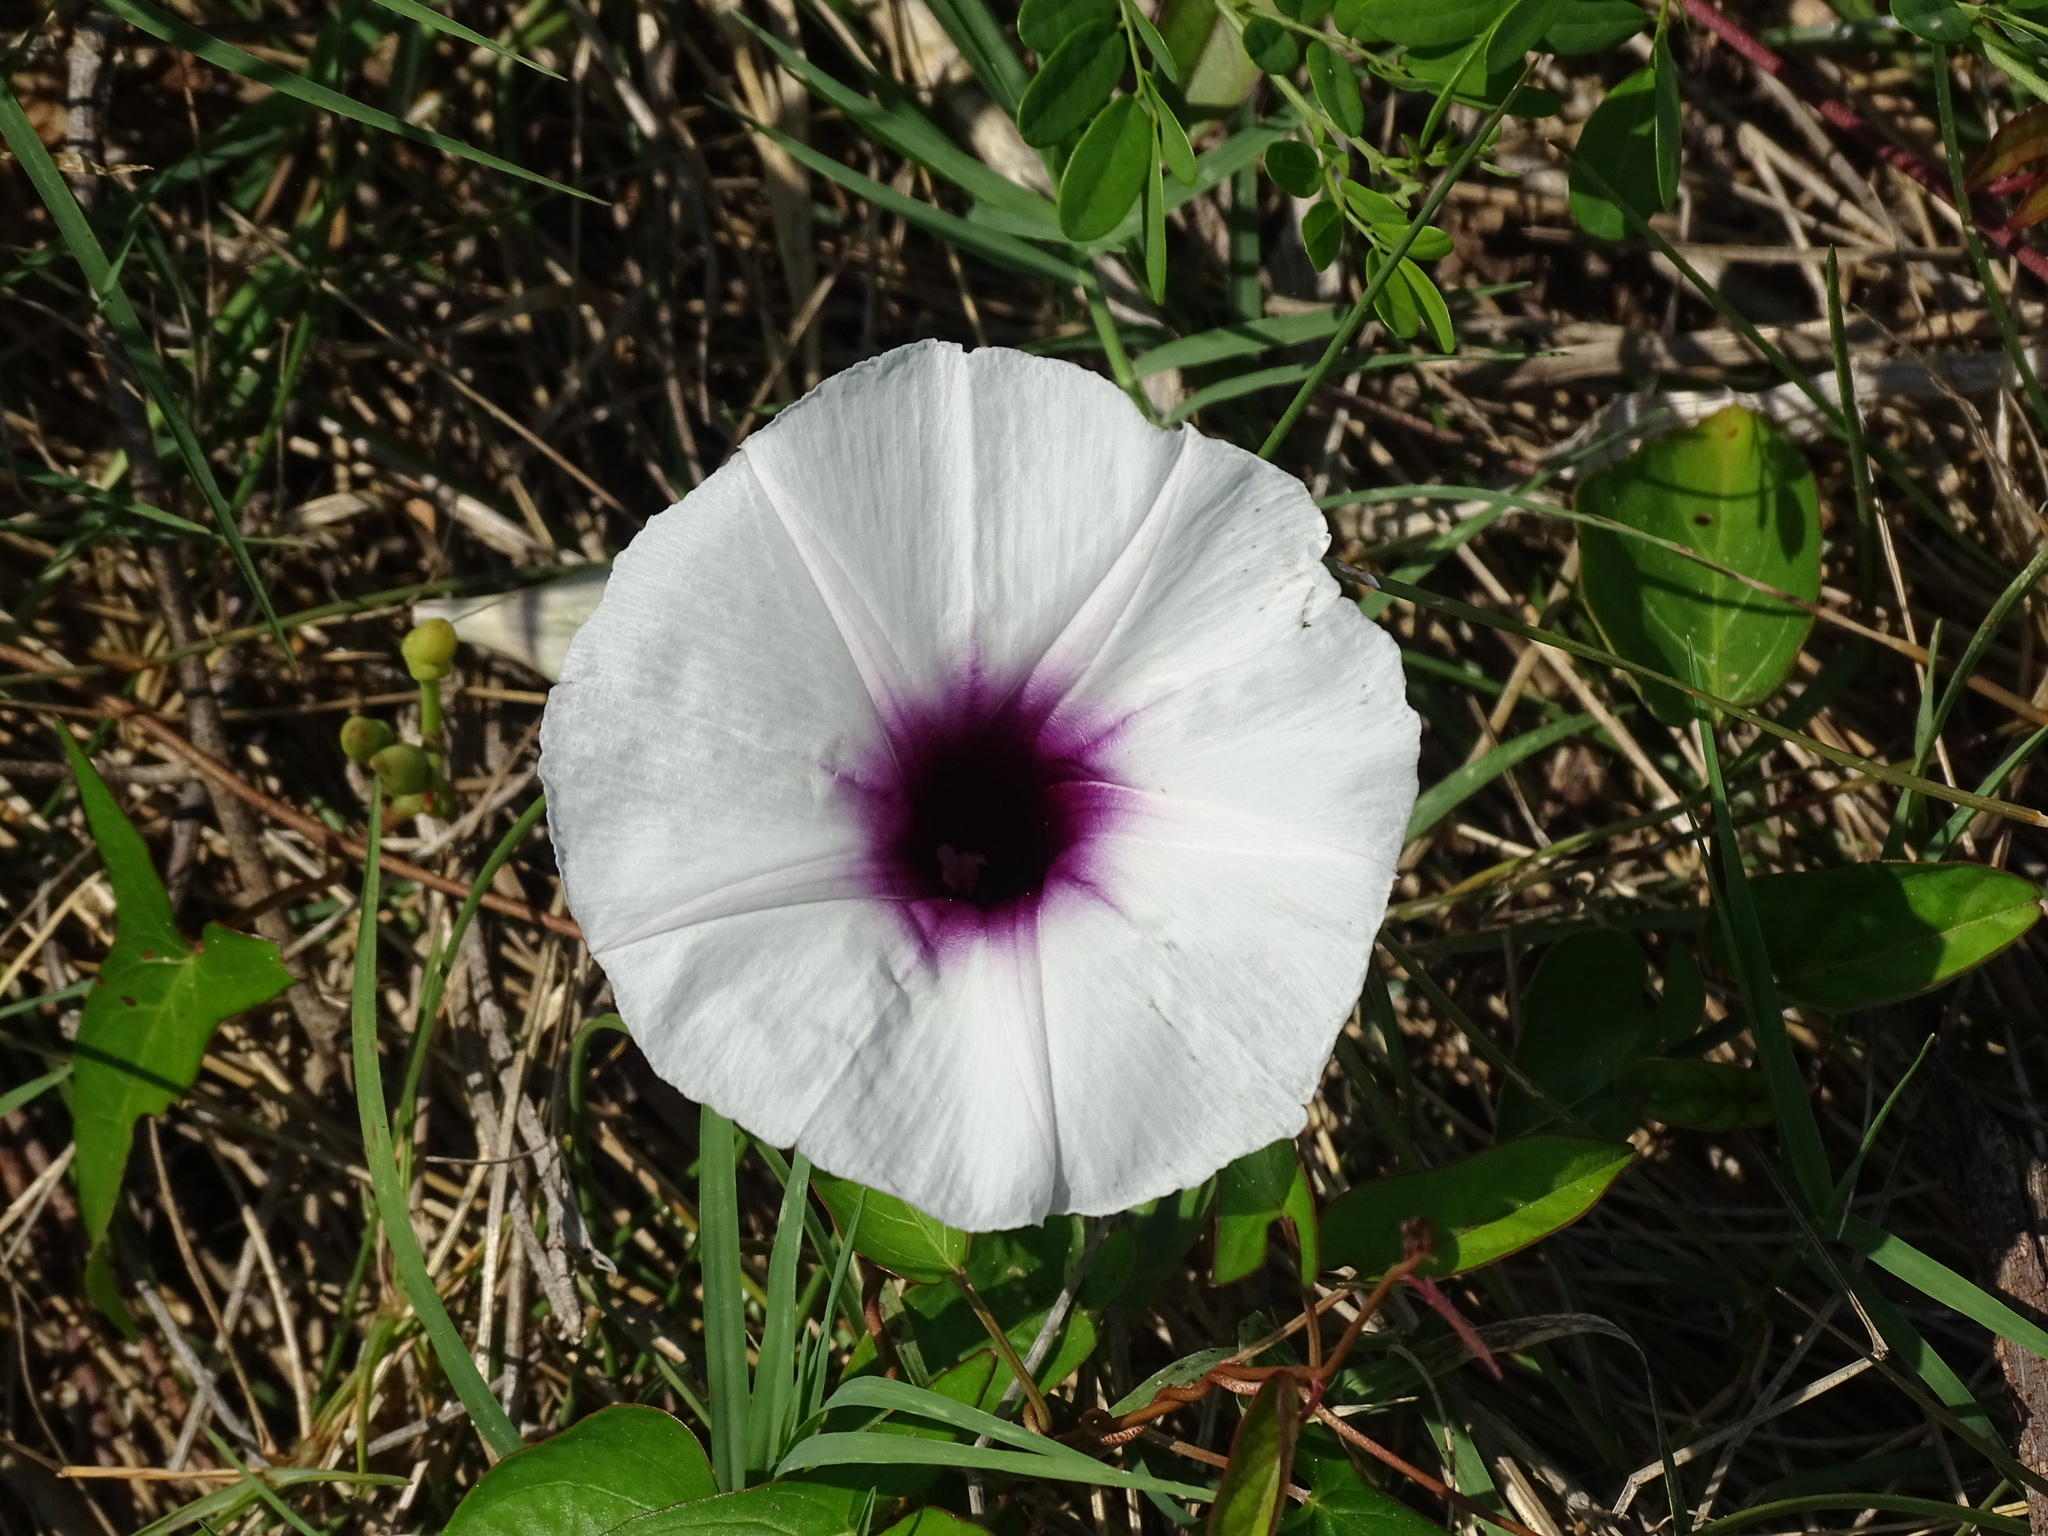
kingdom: Plantae
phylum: Tracheophyta
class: Magnoliopsida
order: Solanales
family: Convolvulaceae
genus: Ipomoea
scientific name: Ipomoea anisomeres
